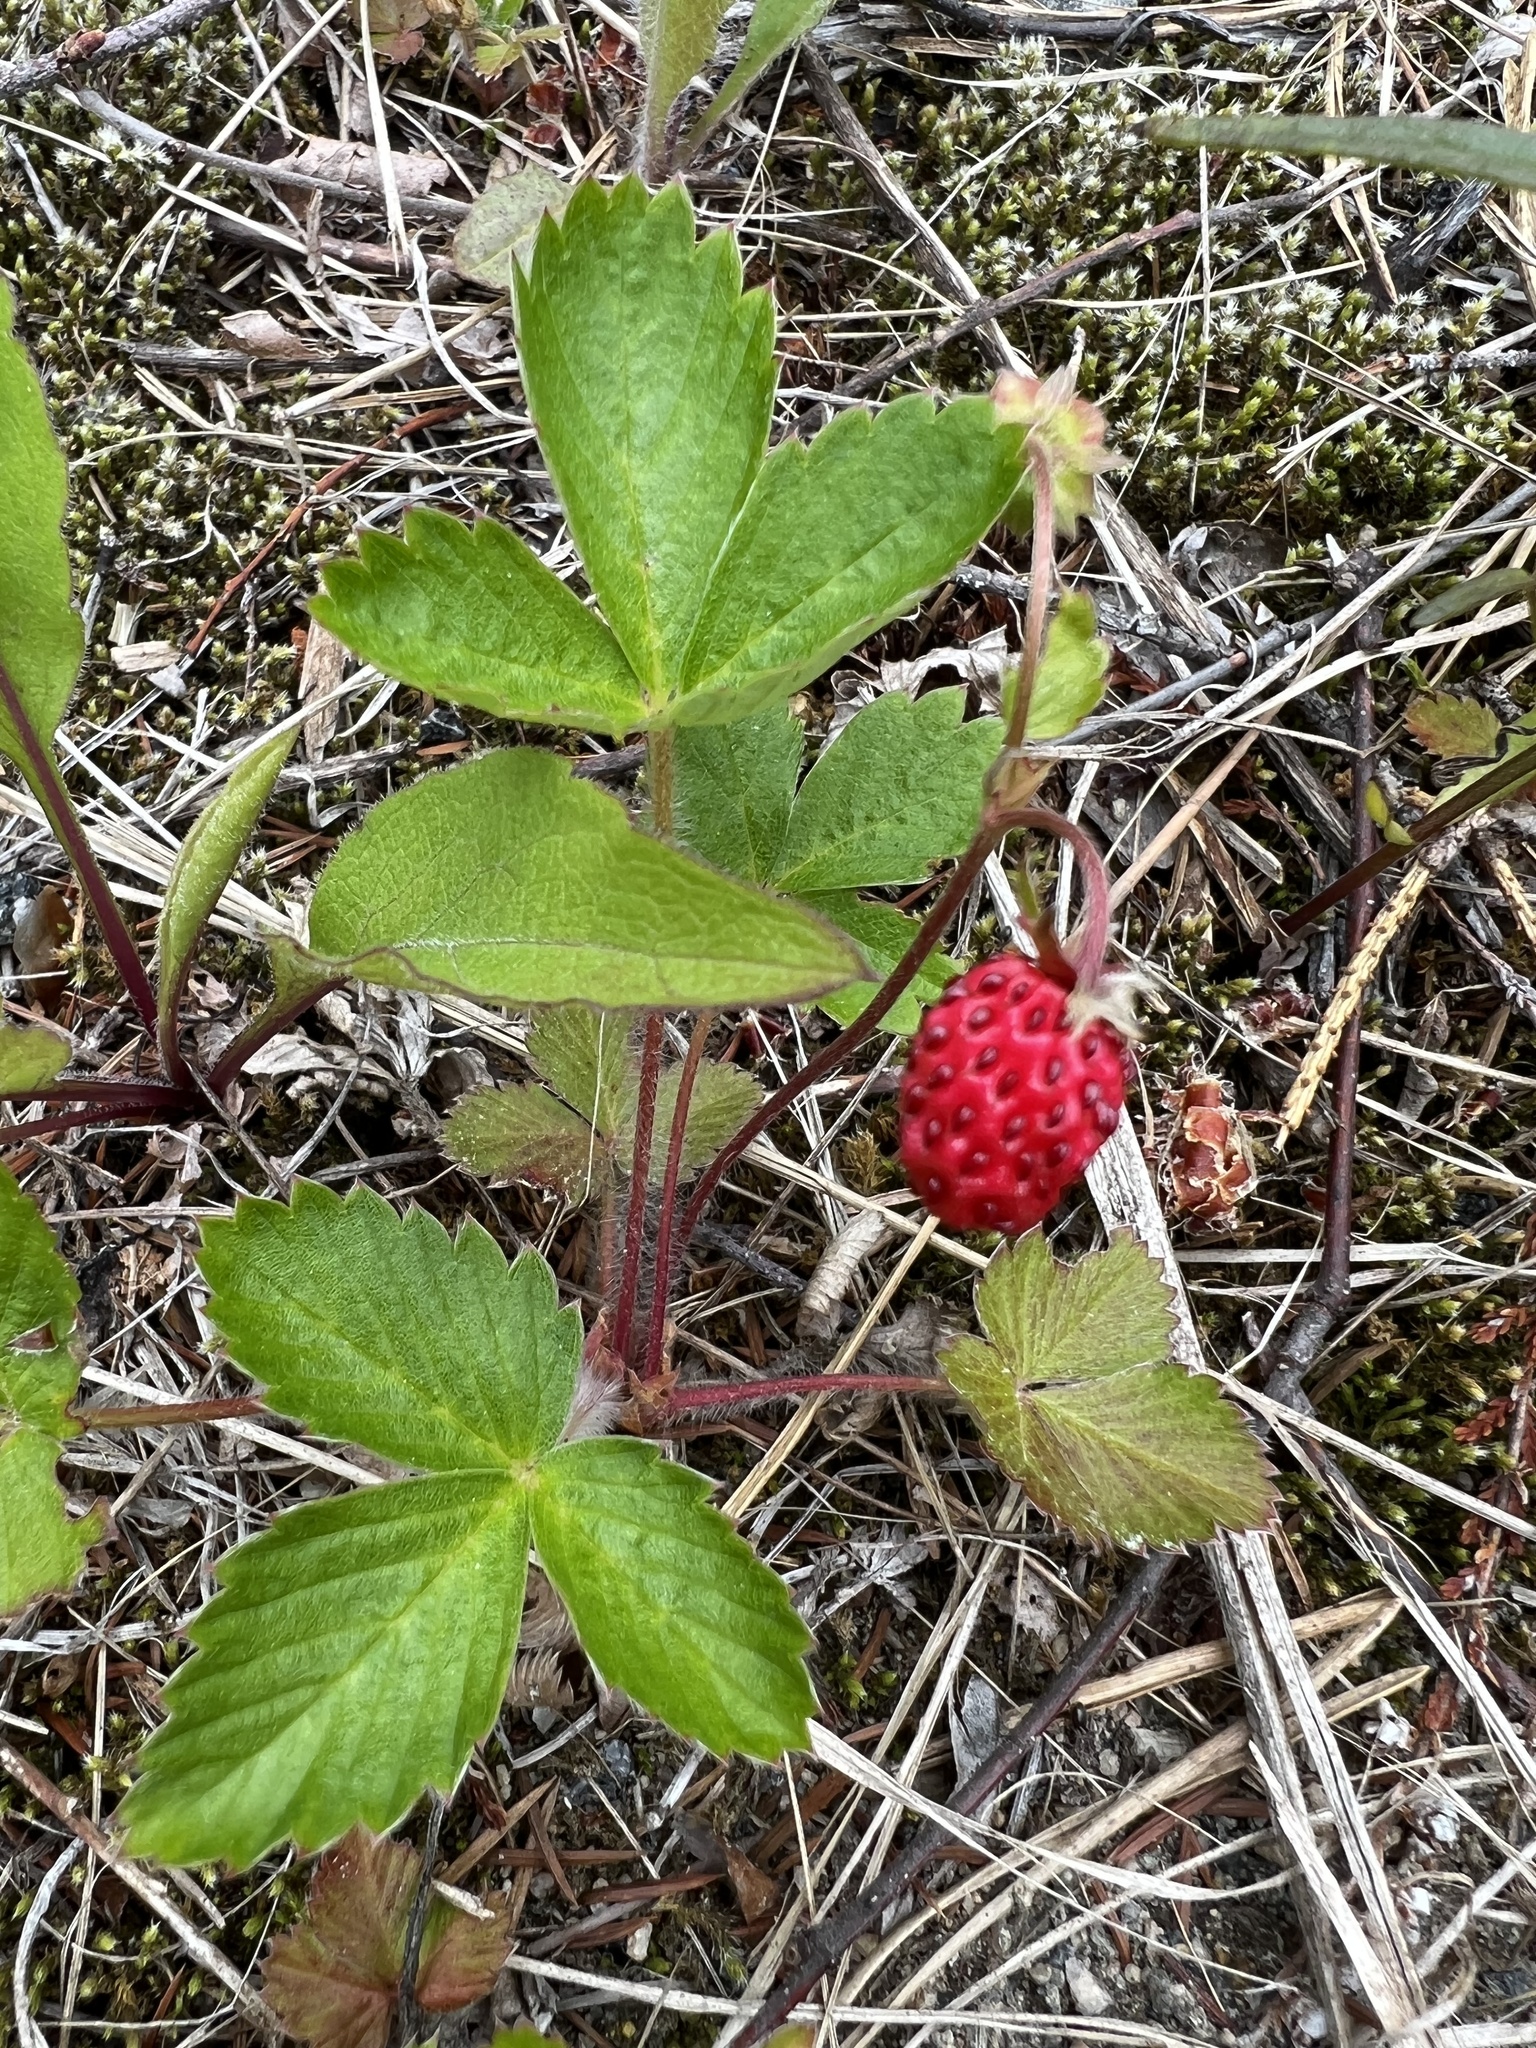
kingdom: Plantae
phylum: Tracheophyta
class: Magnoliopsida
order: Rosales
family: Rosaceae
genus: Fragaria
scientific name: Fragaria vesca
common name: Wild strawberry
